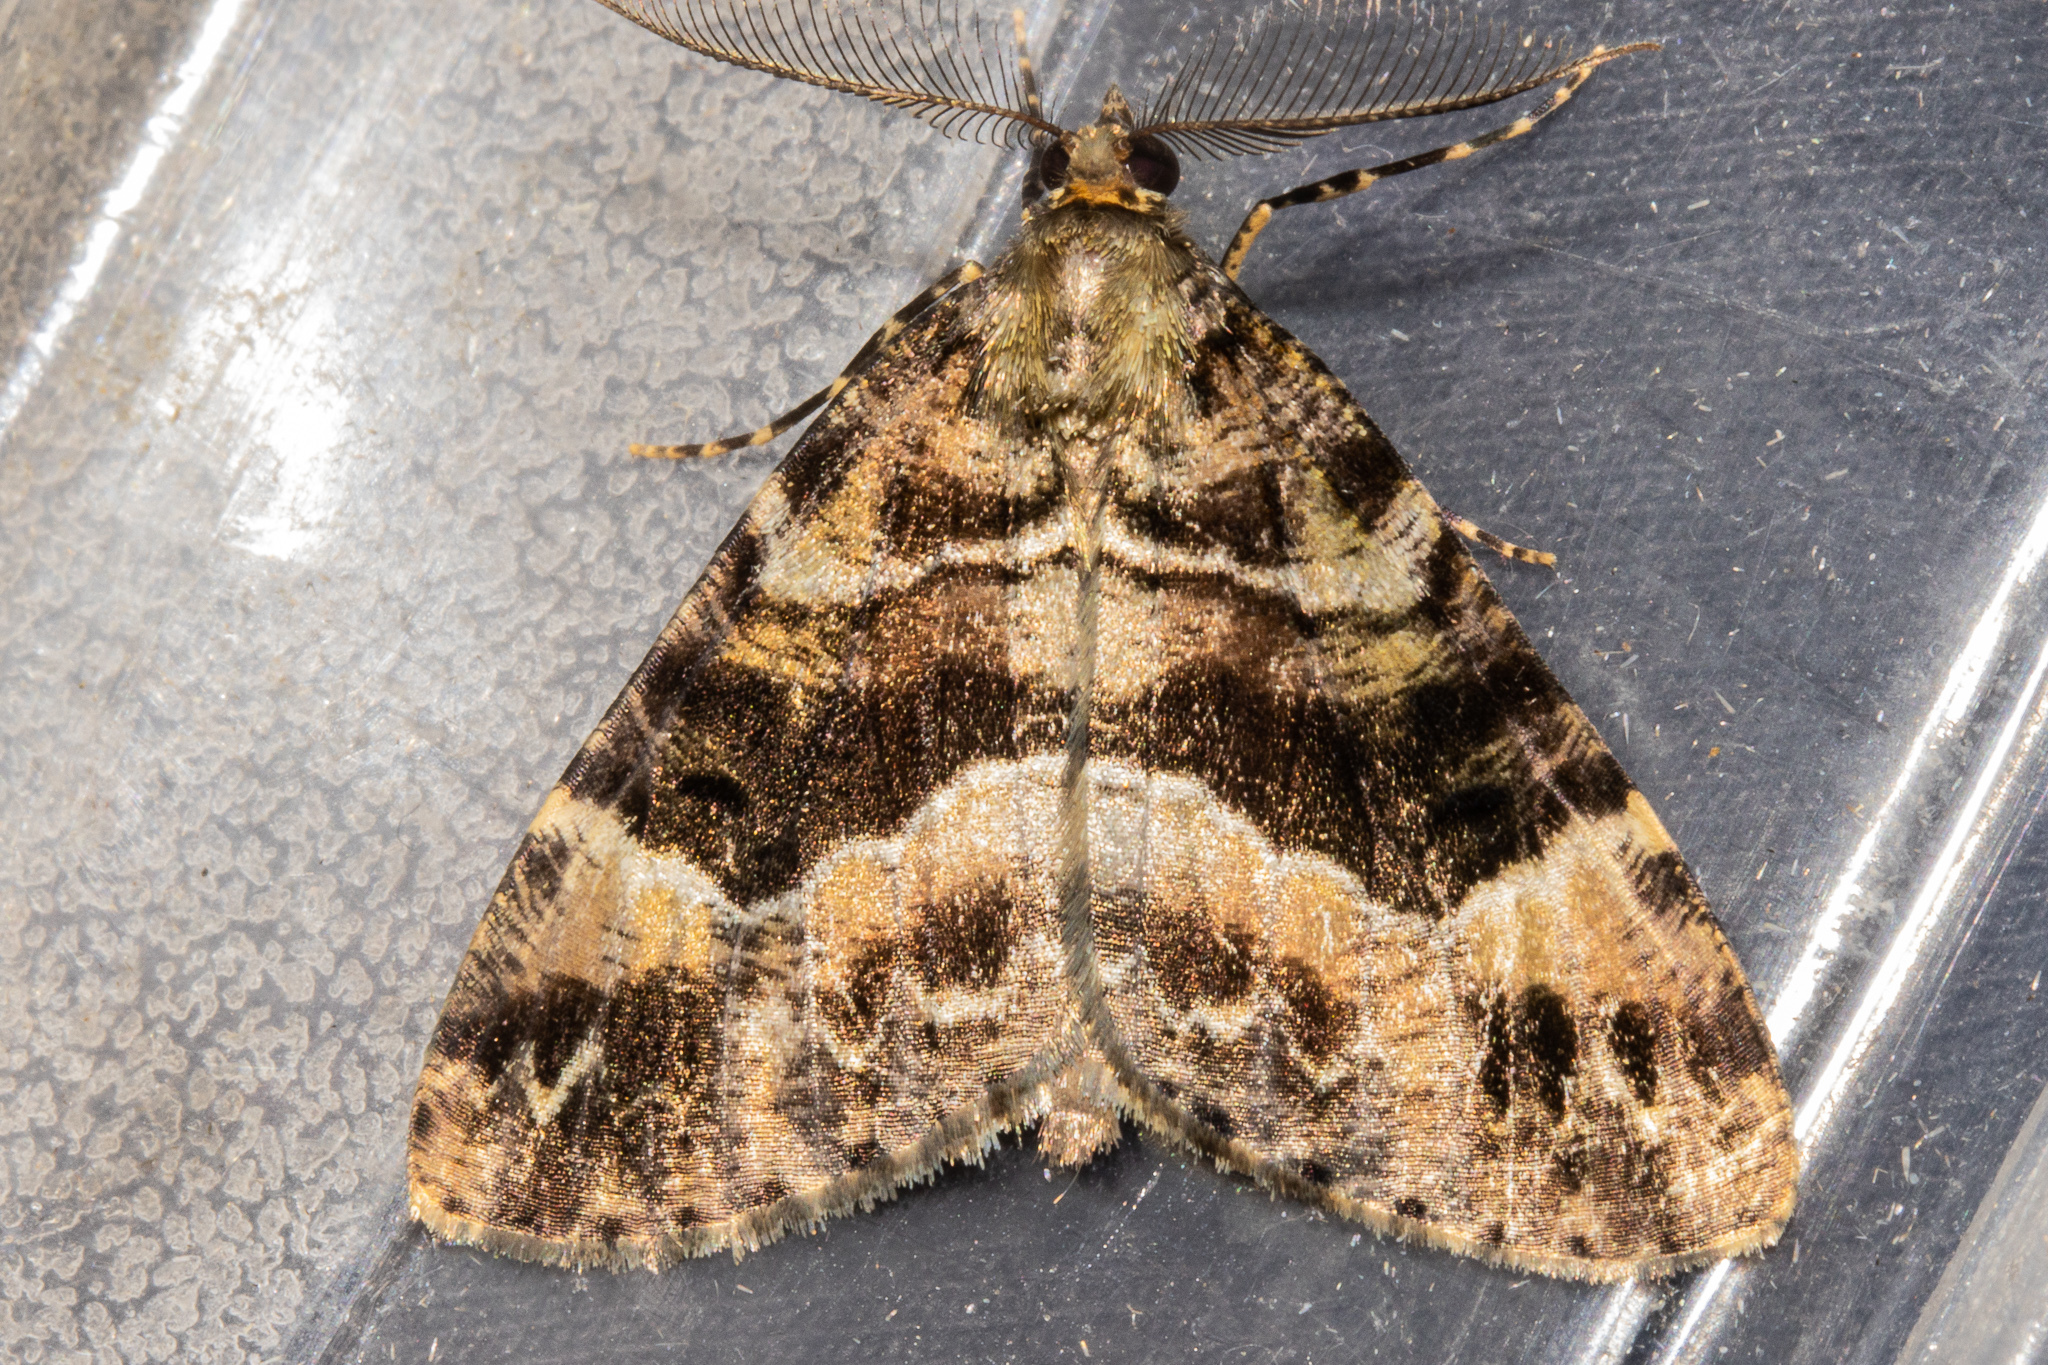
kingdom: Animalia
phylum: Arthropoda
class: Insecta
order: Lepidoptera
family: Geometridae
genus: Pseudocoremia
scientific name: Pseudocoremia productata
